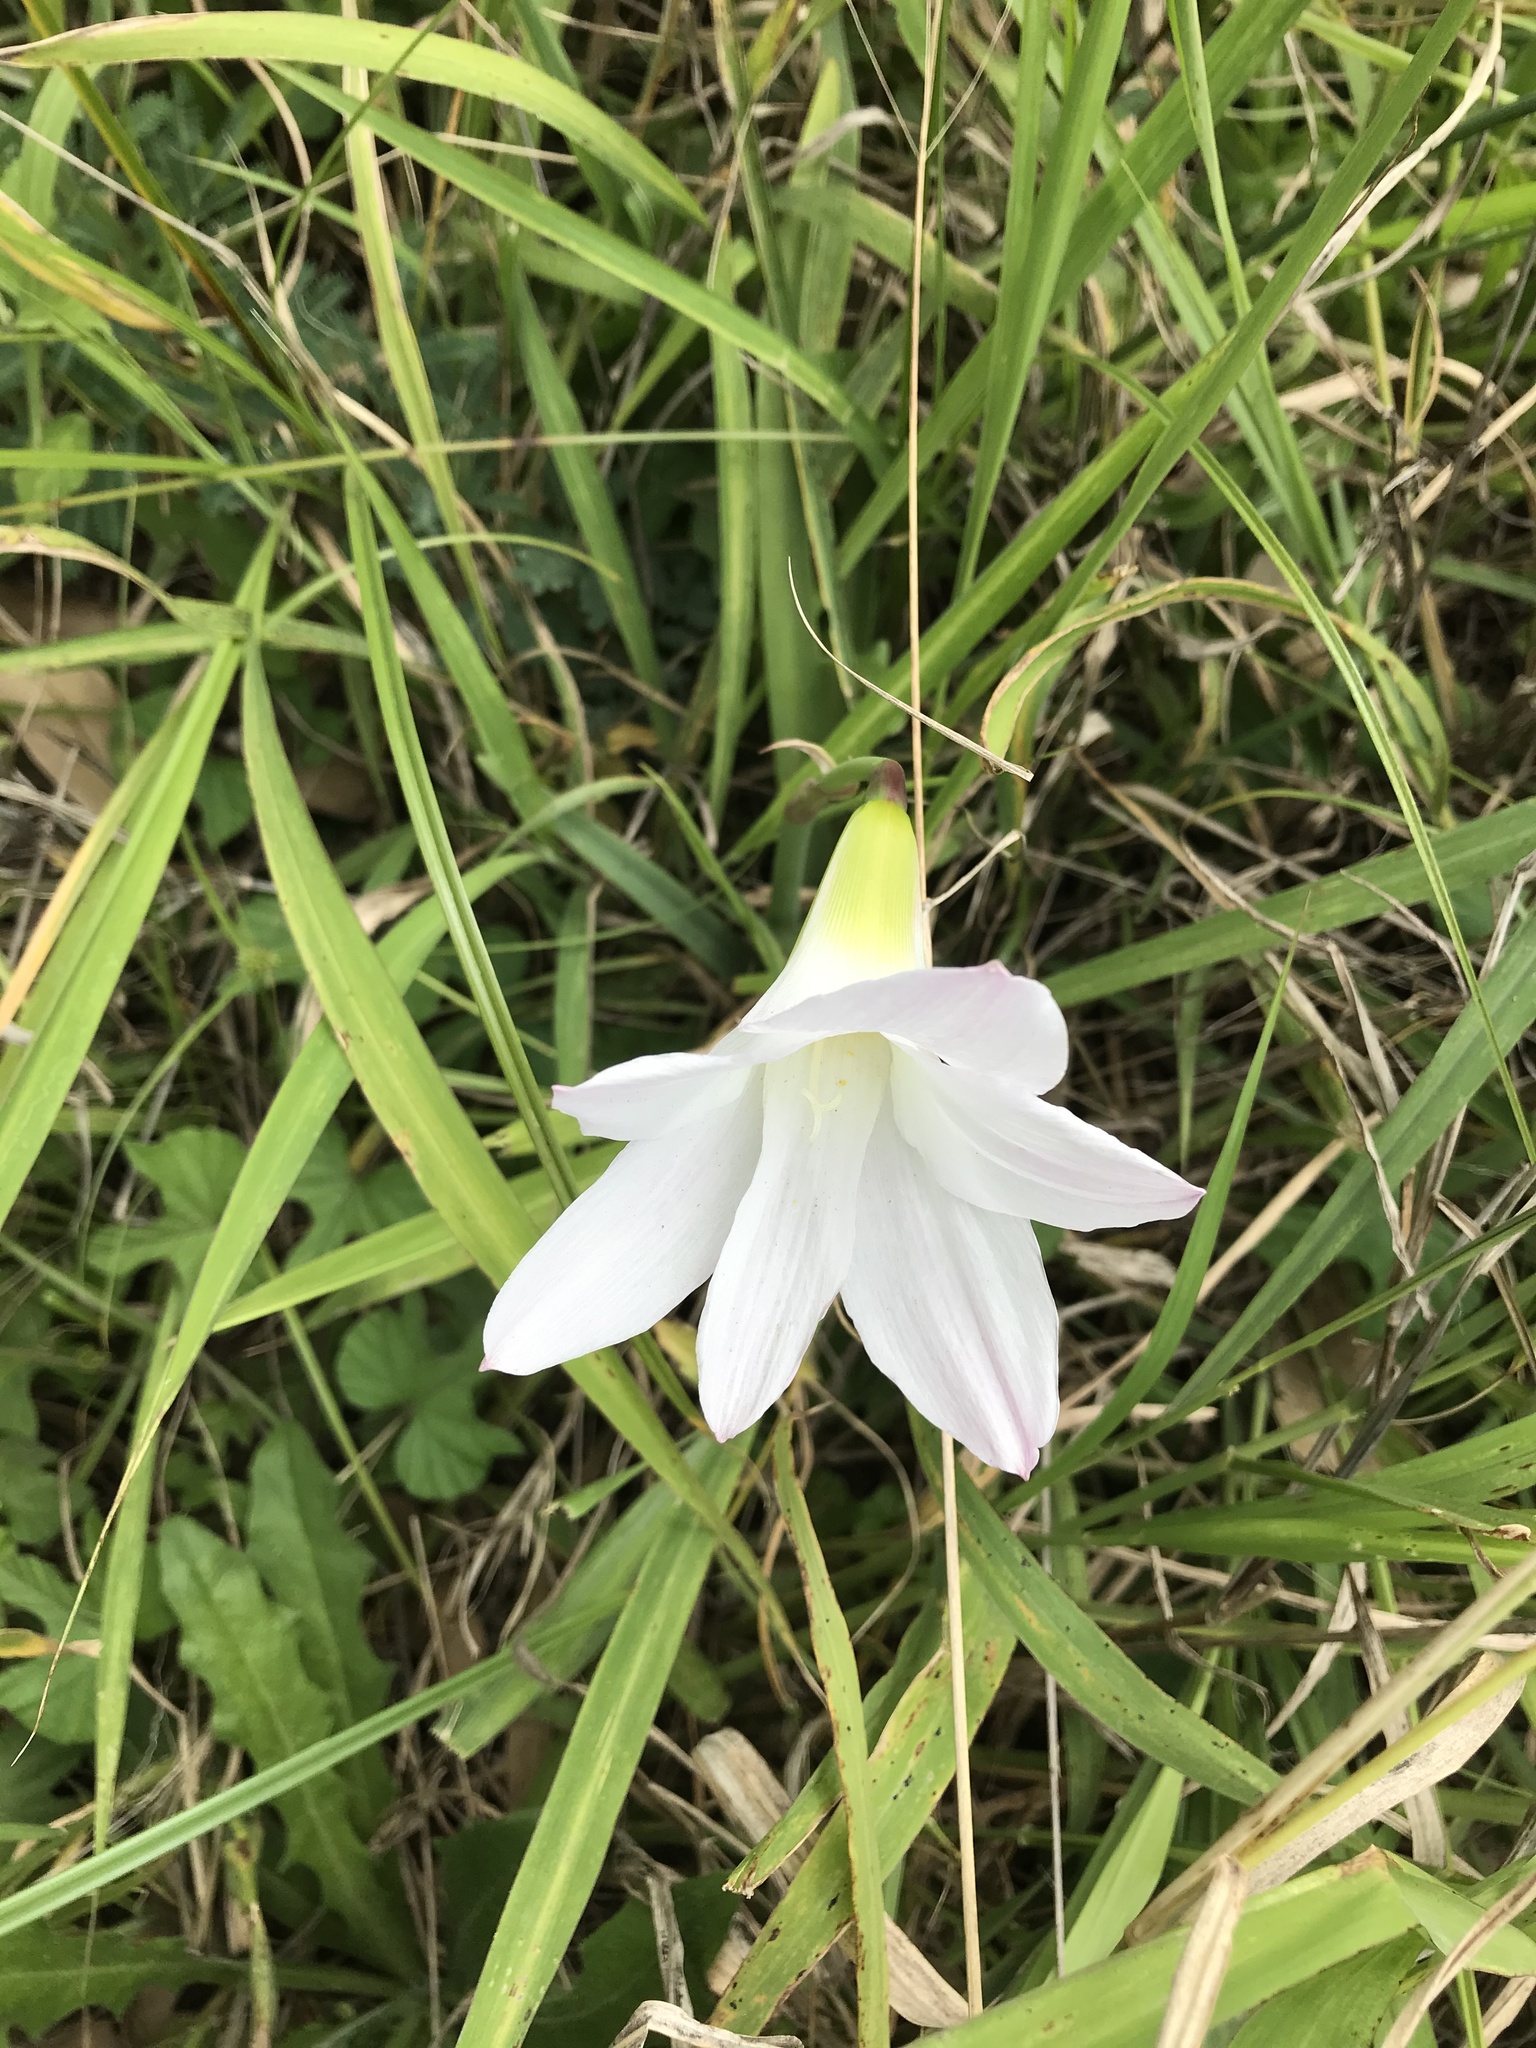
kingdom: Plantae
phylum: Tracheophyta
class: Liliopsida
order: Asparagales
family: Amaryllidaceae
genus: Zephyranthes
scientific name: Zephyranthes robusta
